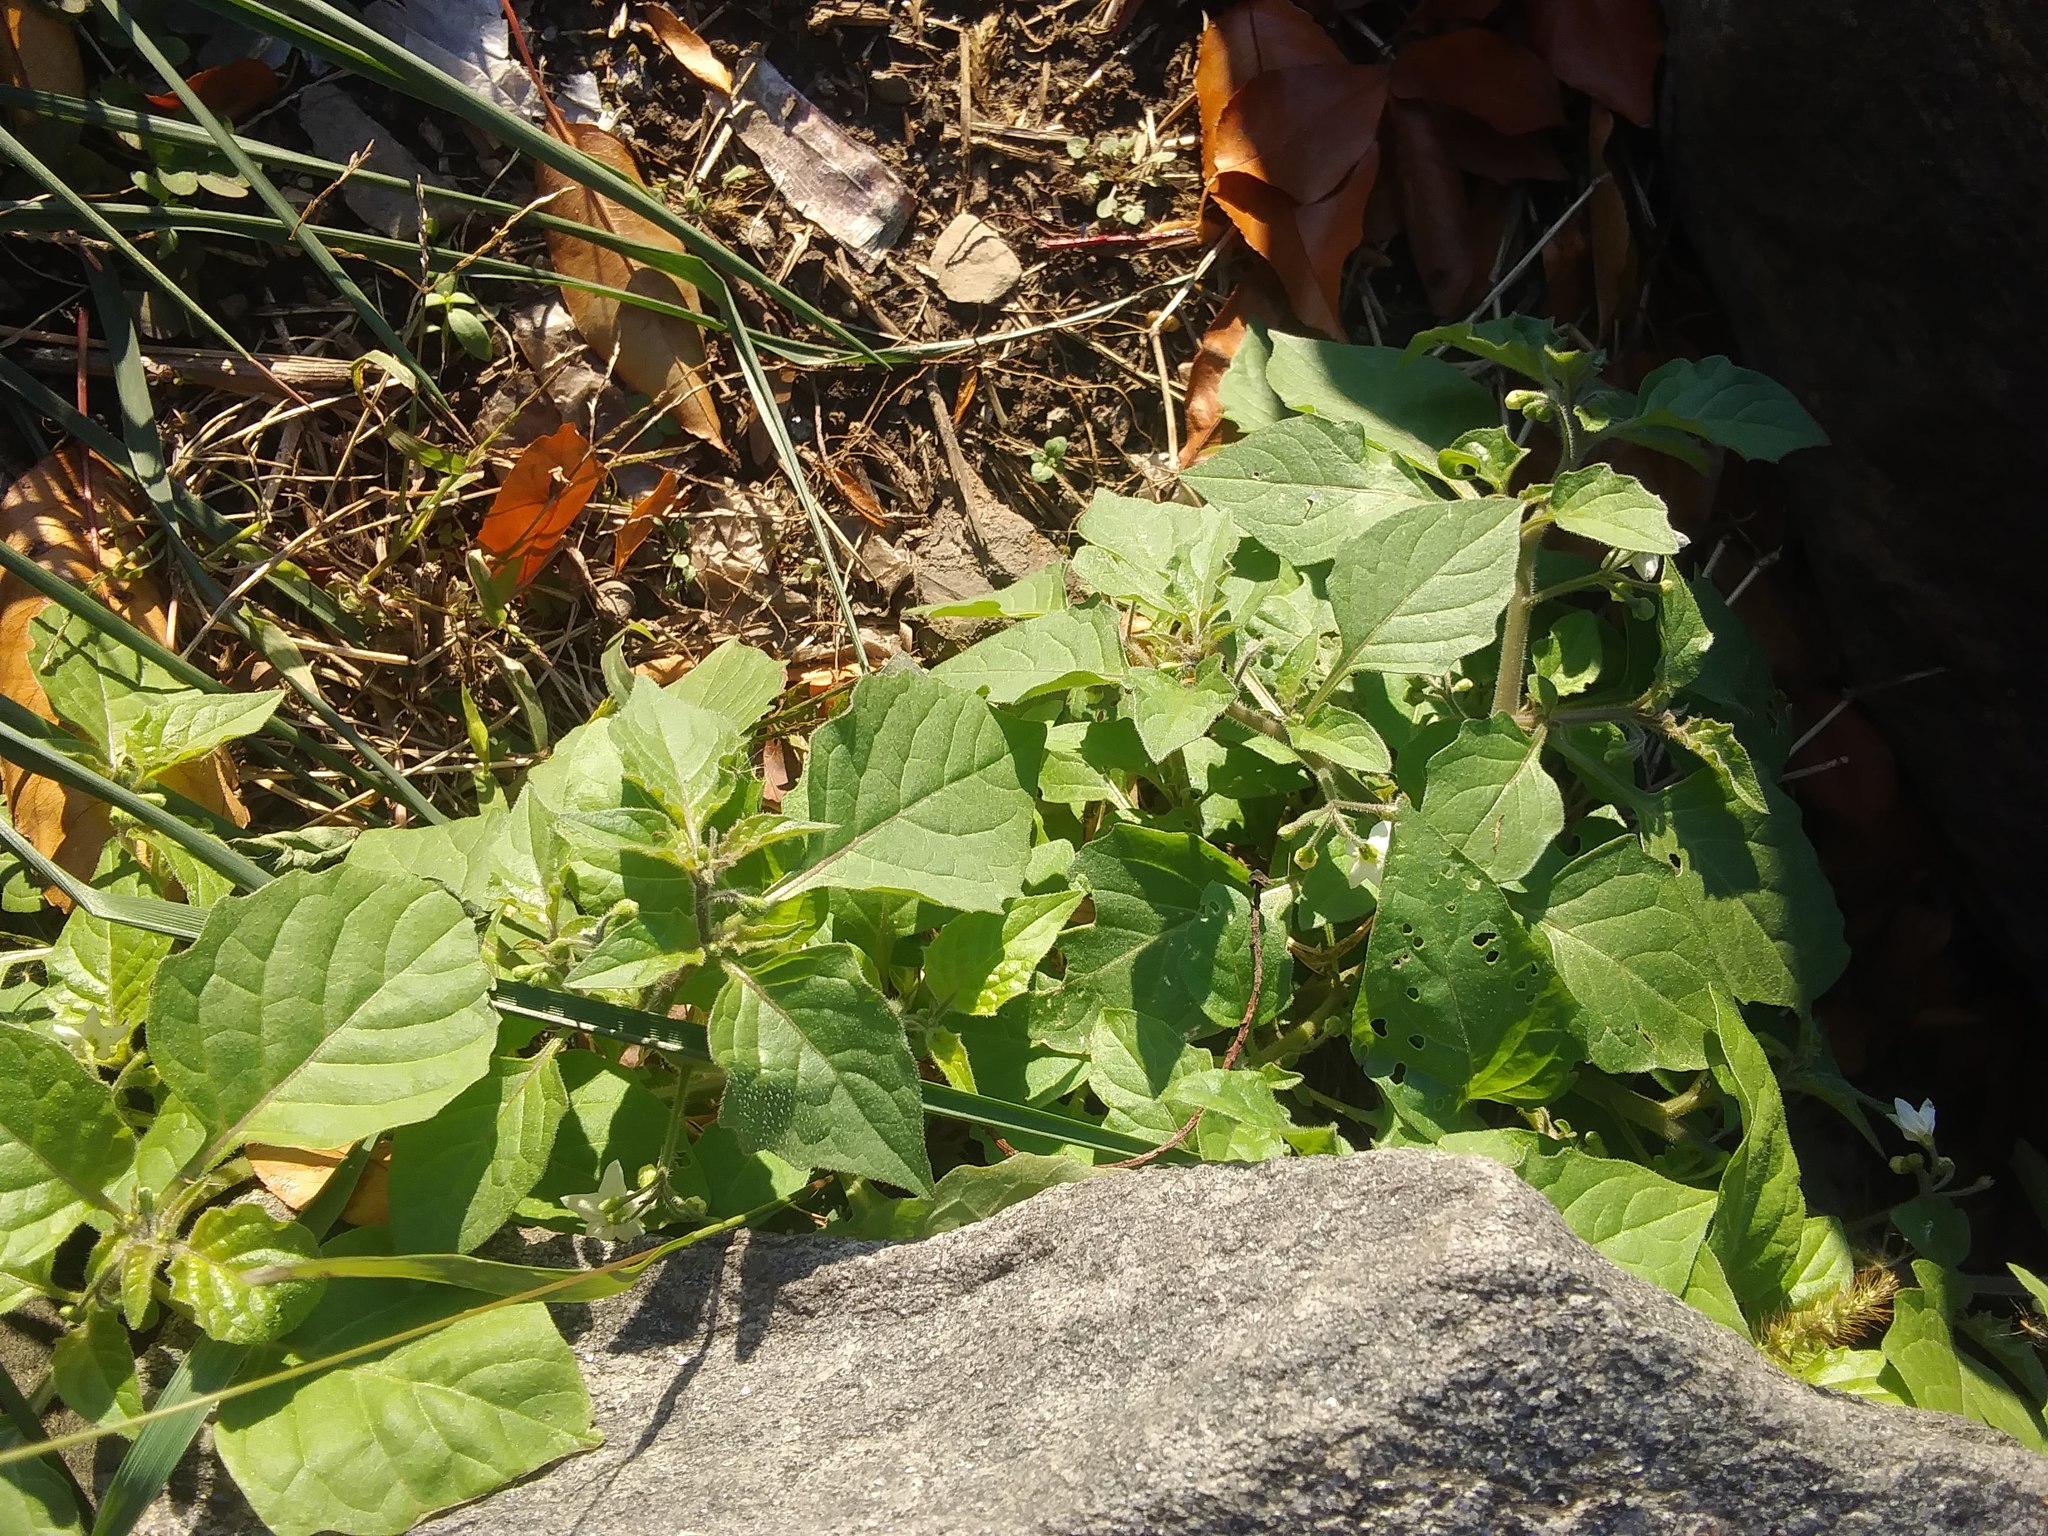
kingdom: Plantae
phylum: Tracheophyta
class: Magnoliopsida
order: Solanales
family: Solanaceae
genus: Solanum
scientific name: Solanum nigrum
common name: Black nightshade
